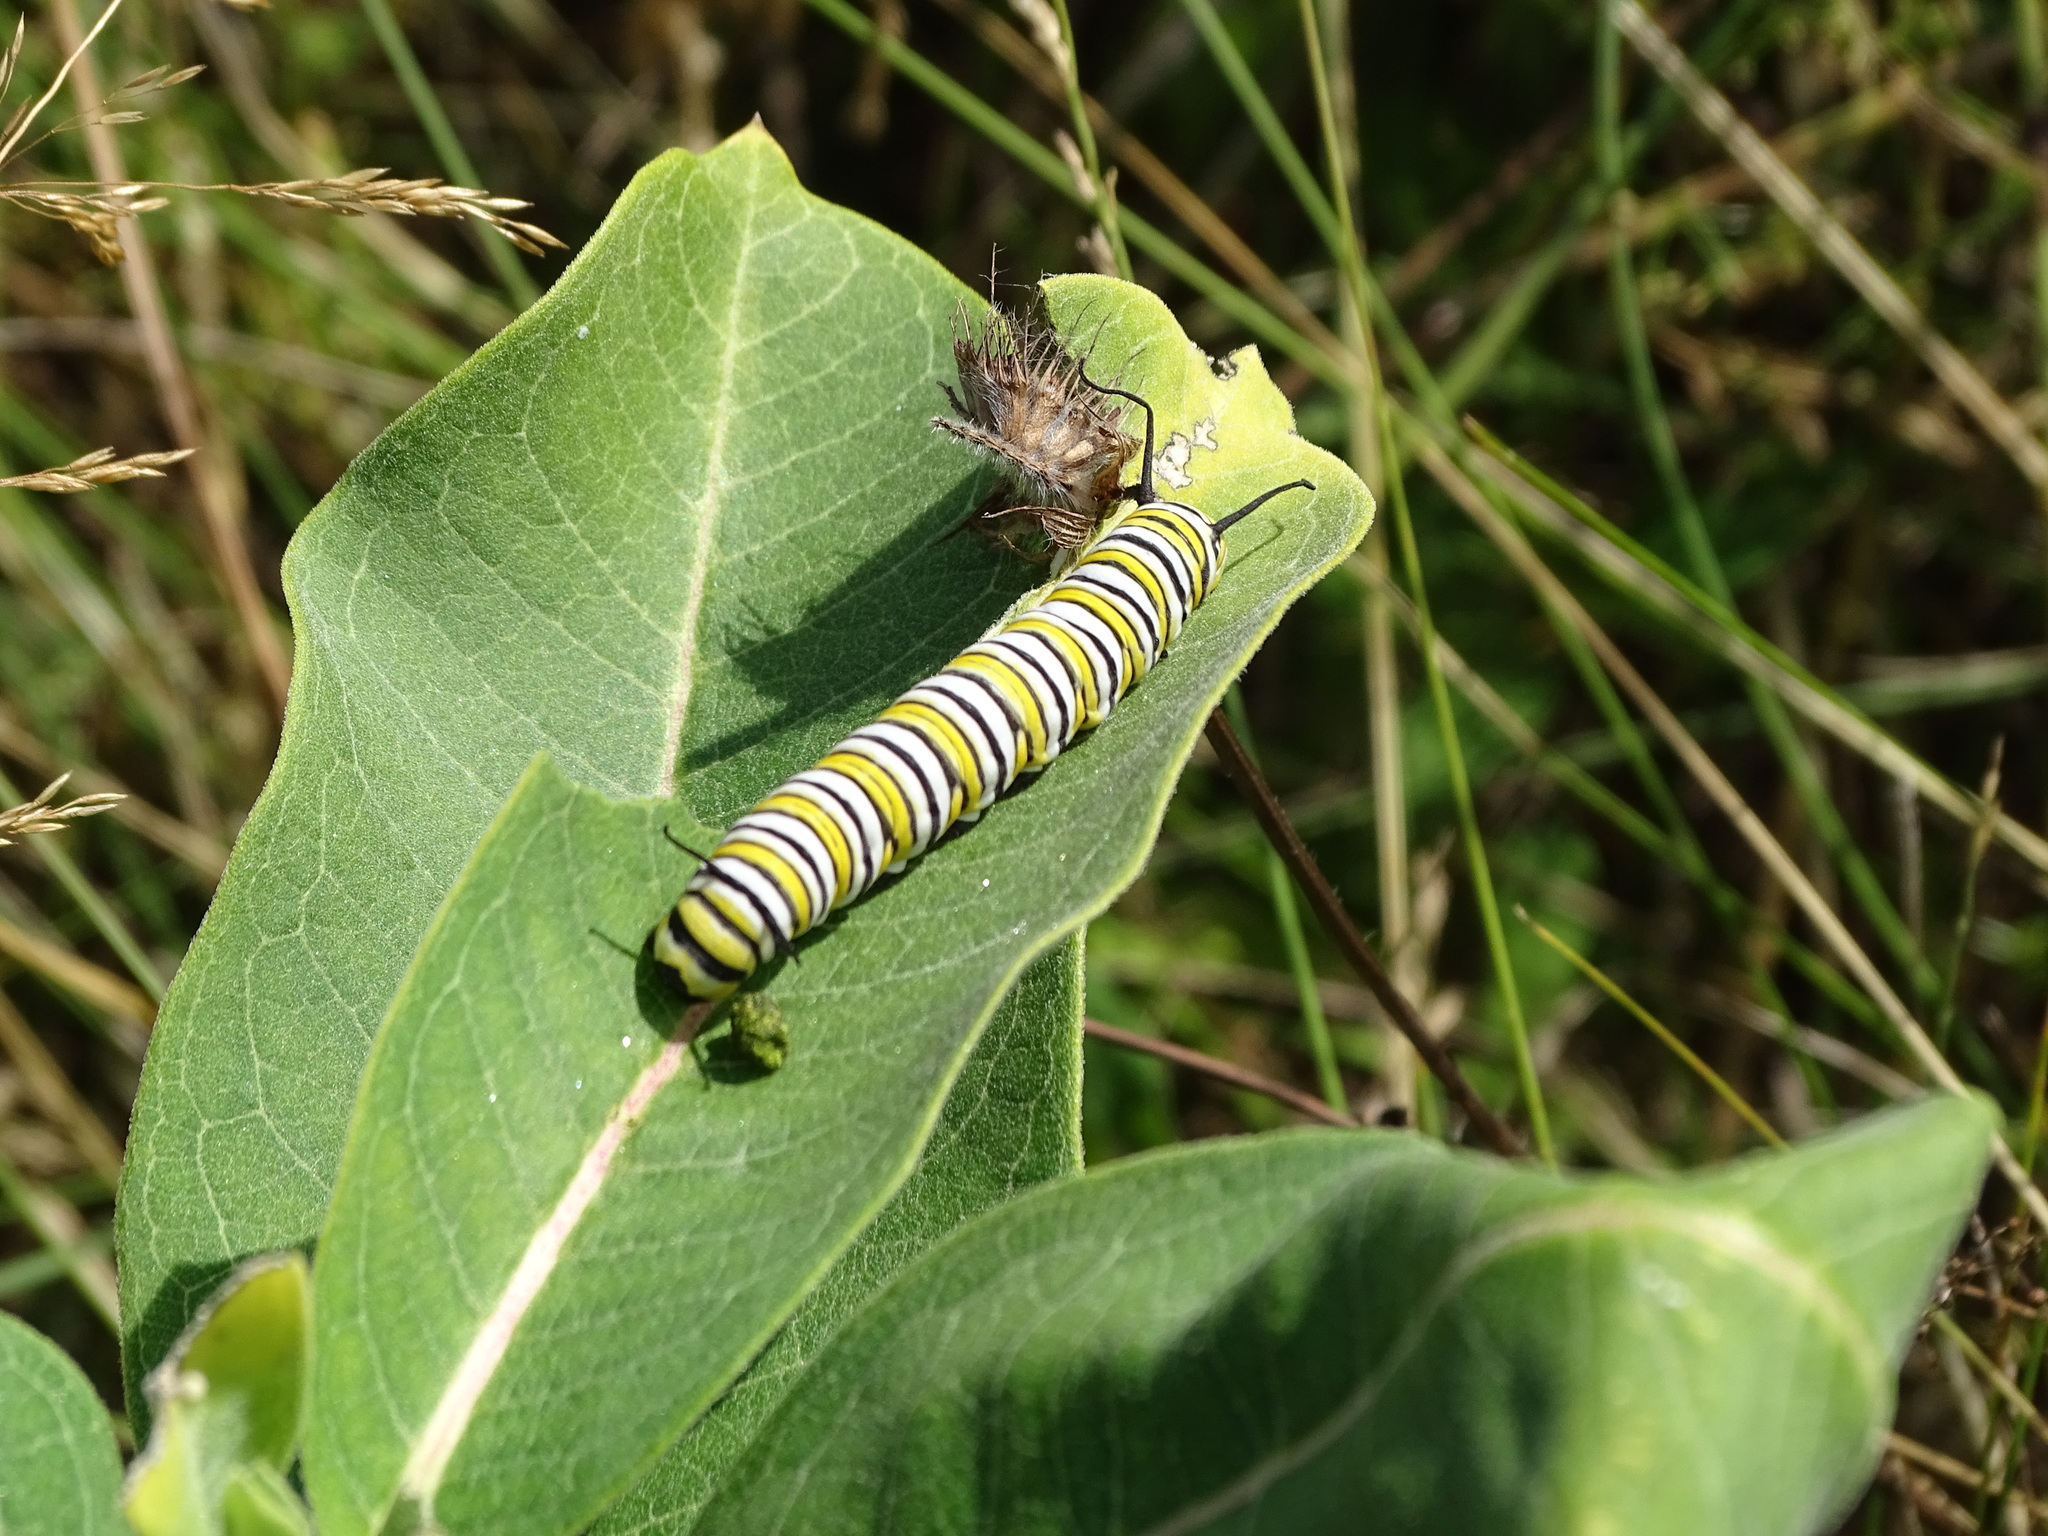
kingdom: Animalia
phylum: Arthropoda
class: Insecta
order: Lepidoptera
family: Nymphalidae
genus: Danaus
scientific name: Danaus plexippus
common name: Monarch
